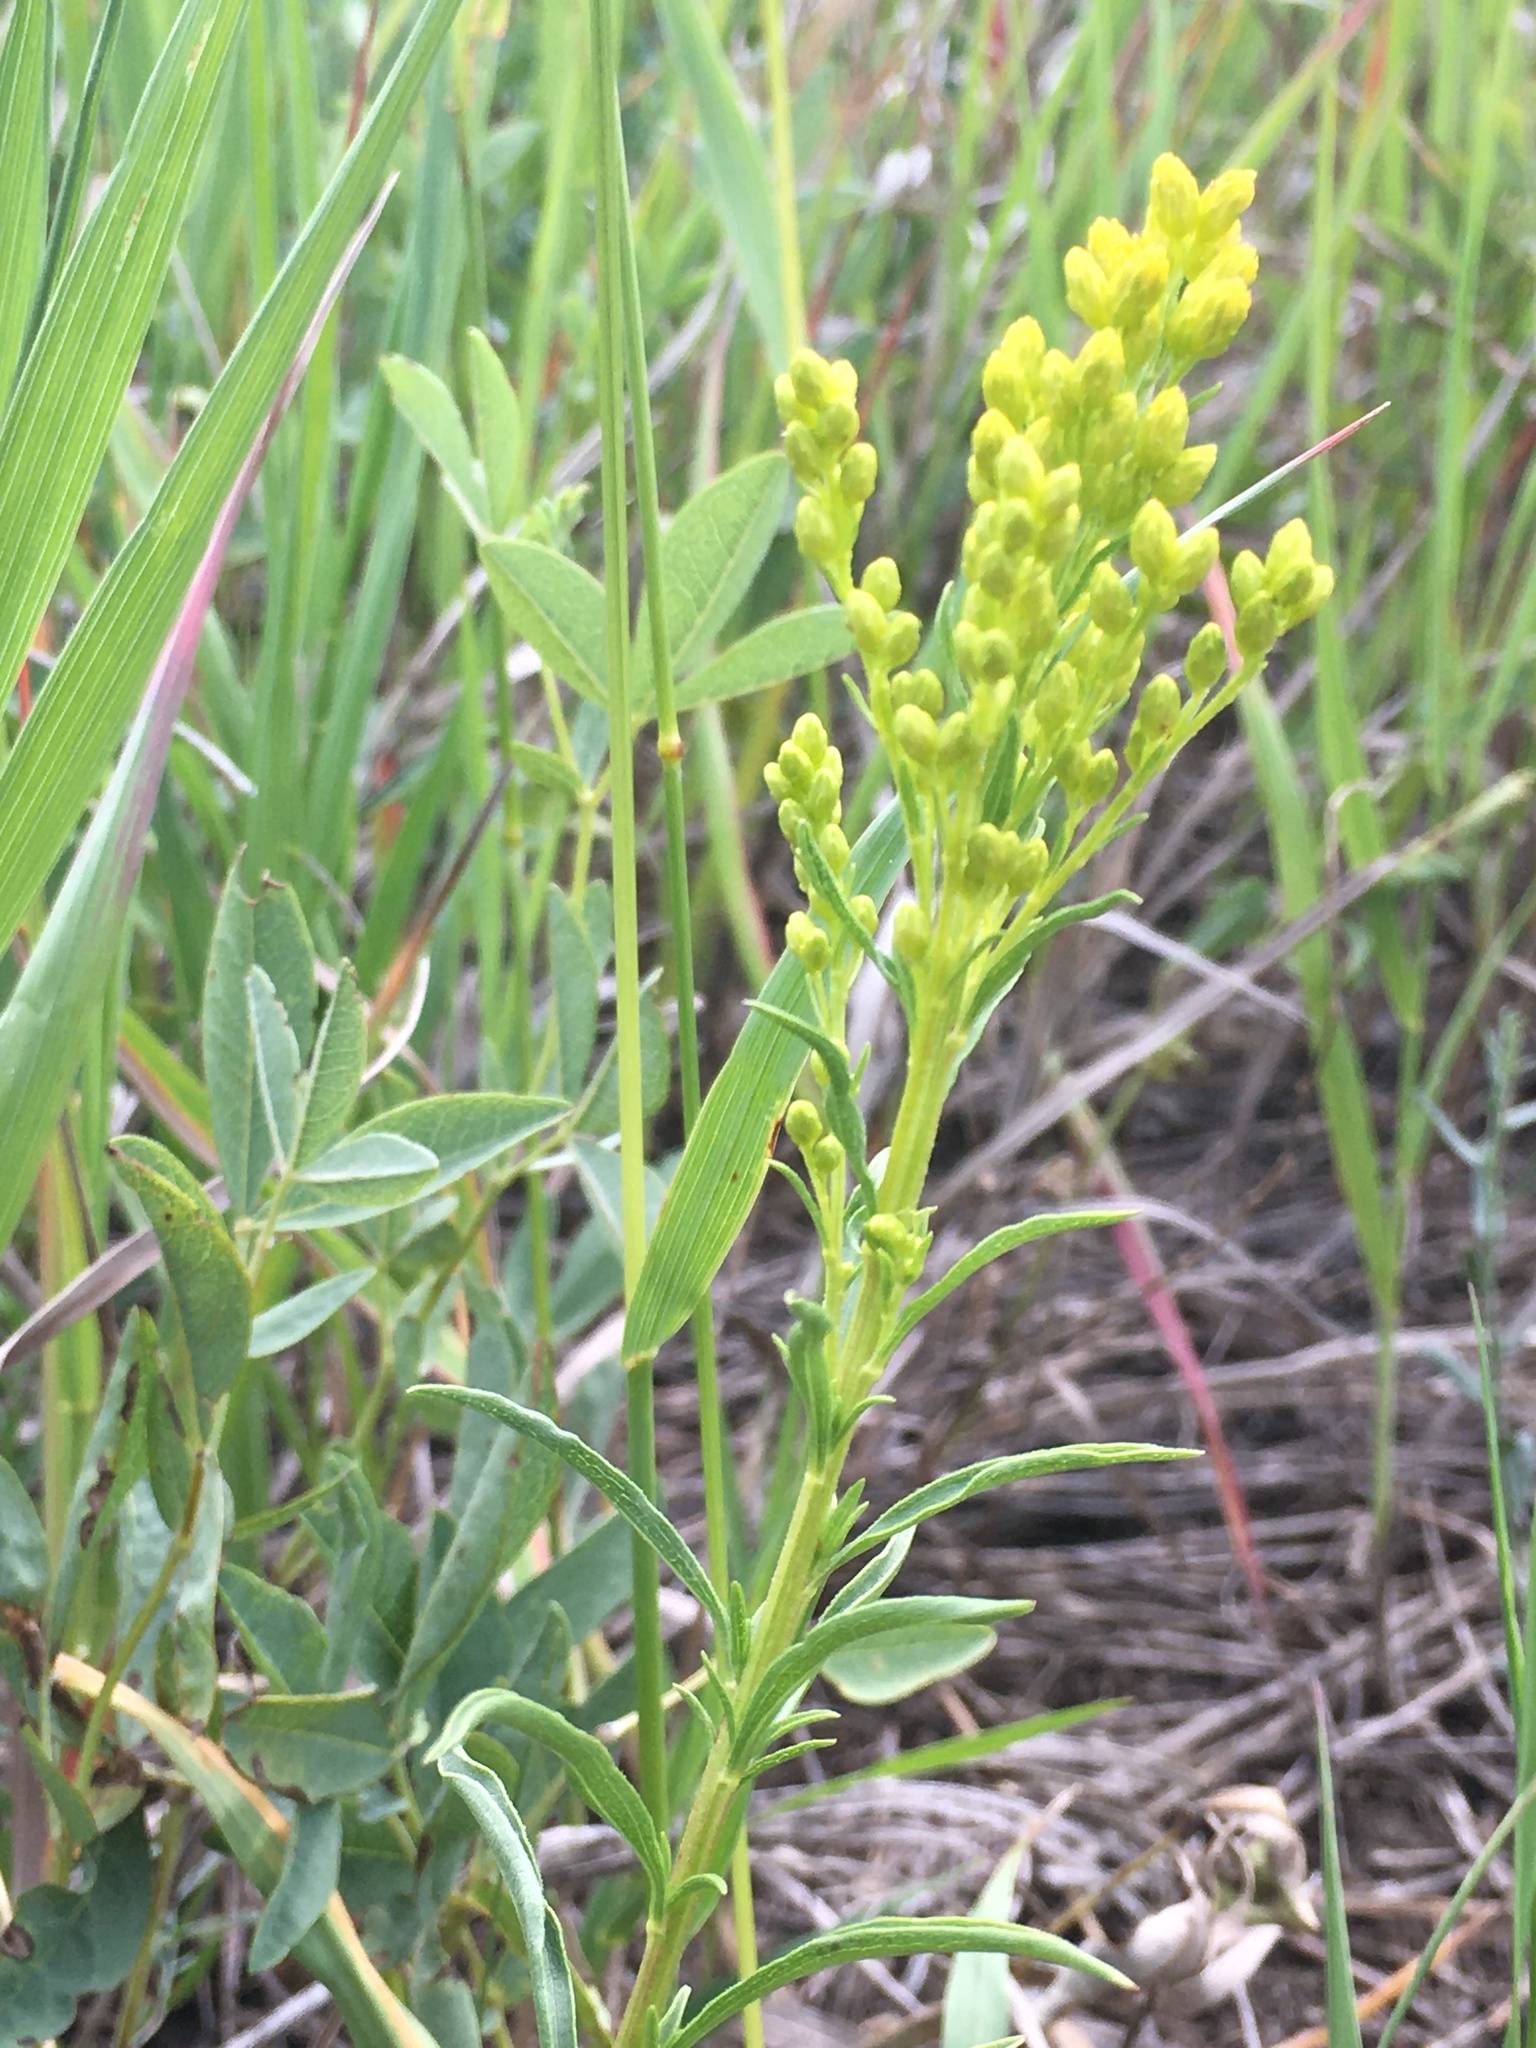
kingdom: Plantae
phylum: Tracheophyta
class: Magnoliopsida
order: Asterales
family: Asteraceae
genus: Solidago
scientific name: Solidago missouriensis
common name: Prairie goldenrod
